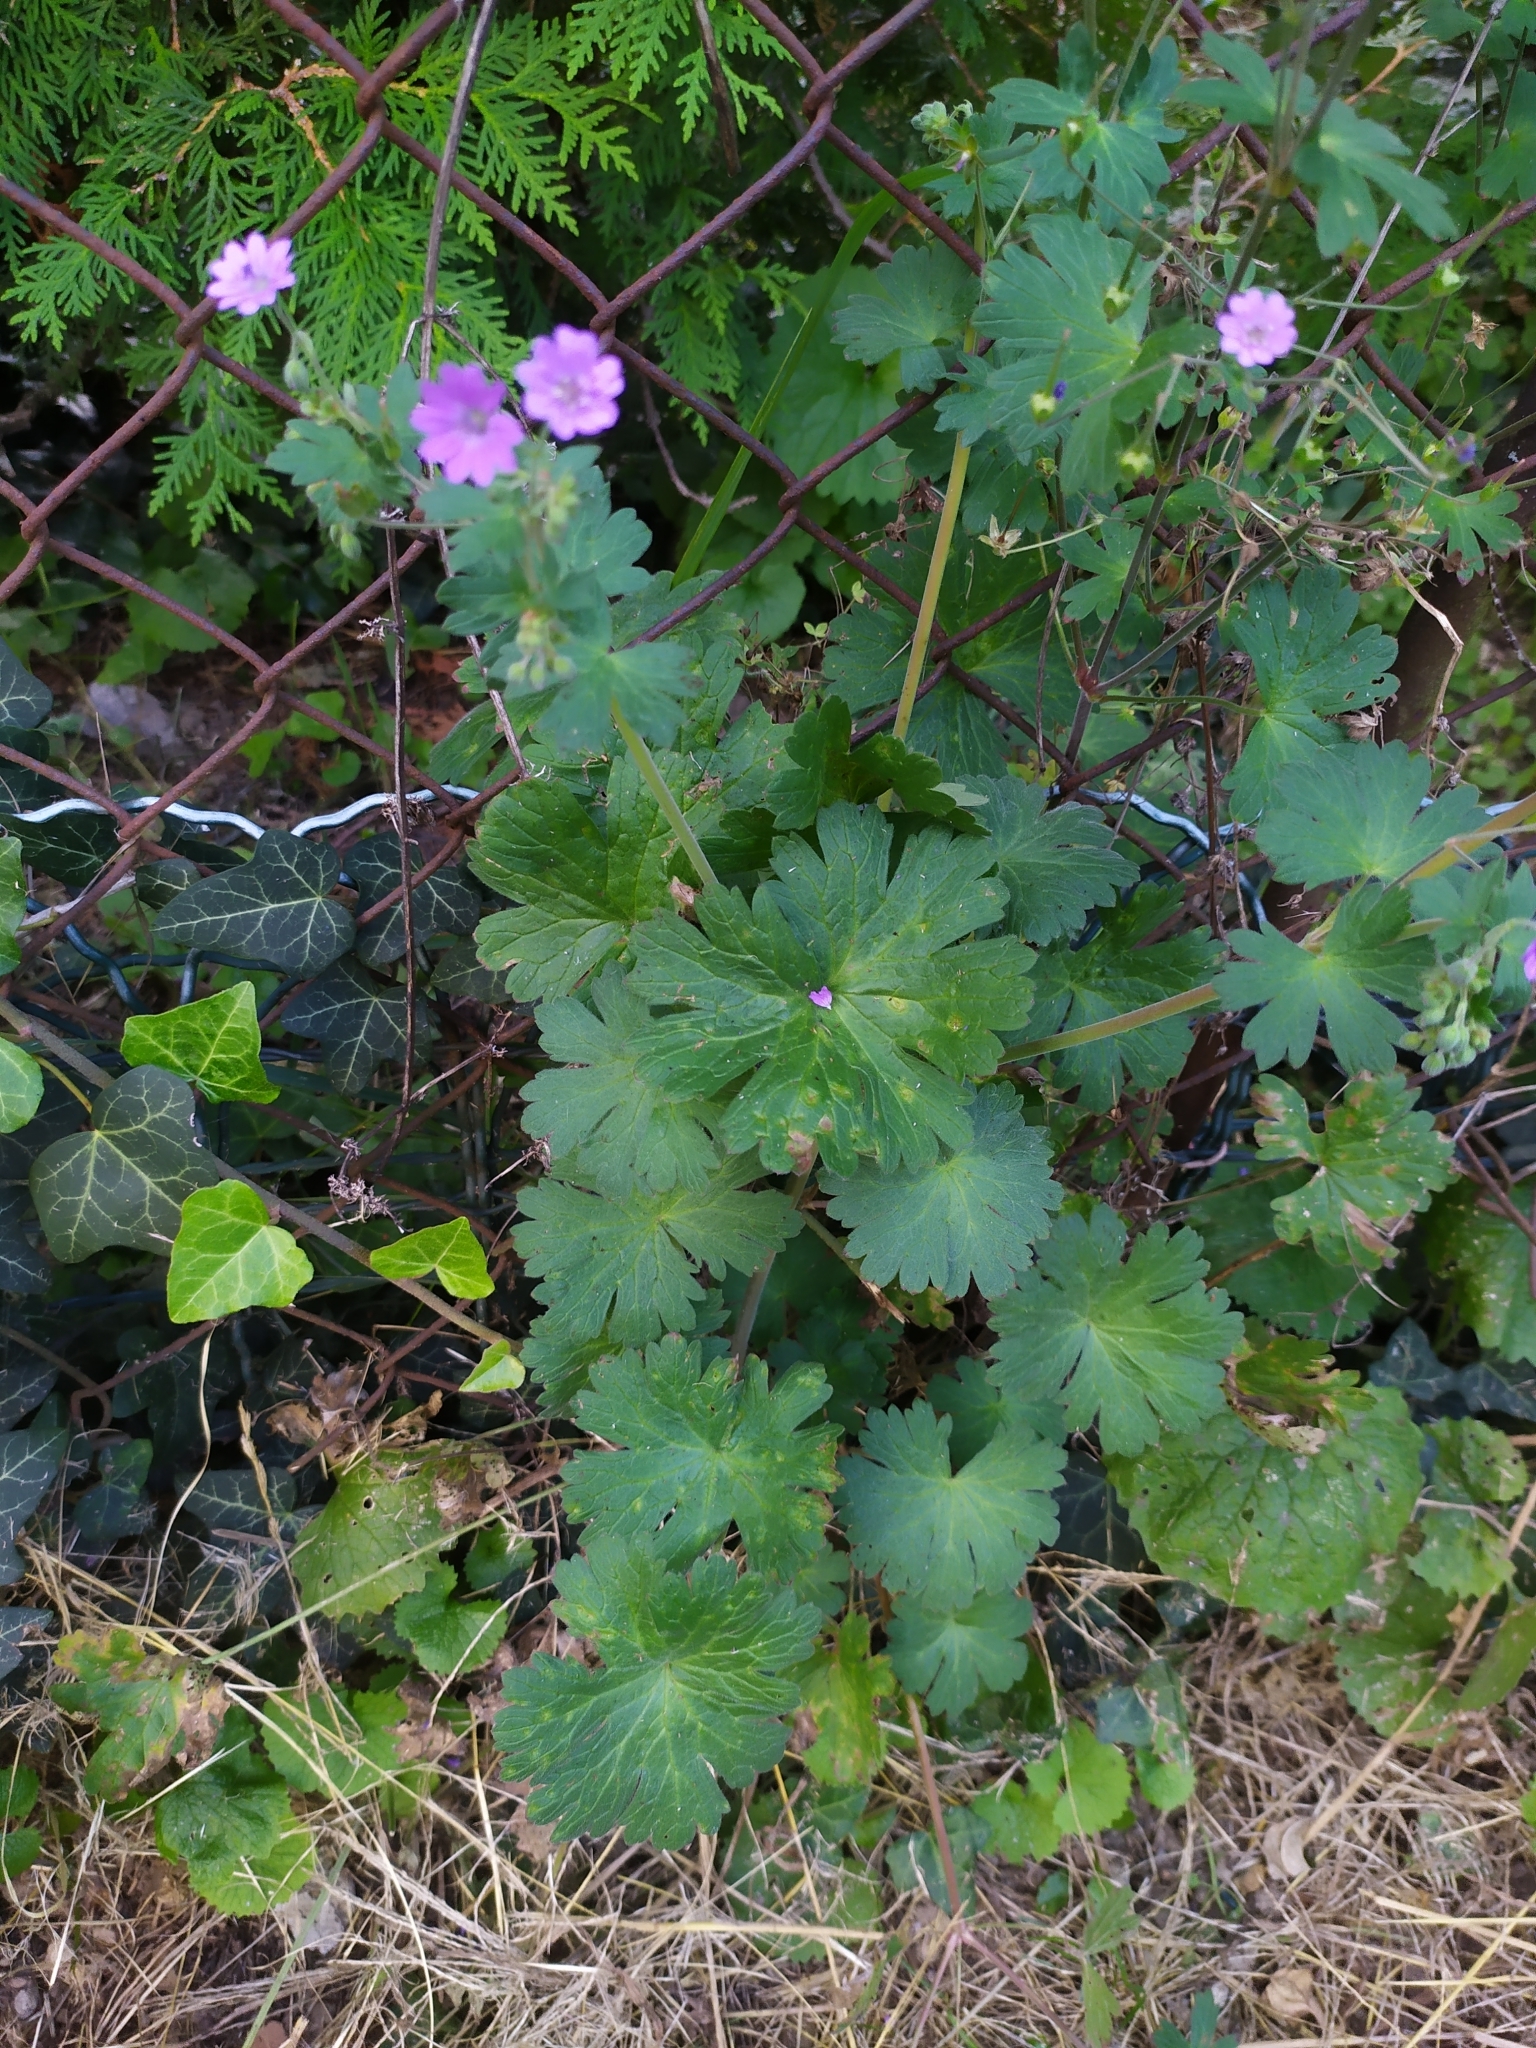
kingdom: Plantae
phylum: Tracheophyta
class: Magnoliopsida
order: Geraniales
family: Geraniaceae
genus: Geranium
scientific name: Geranium pyrenaicum
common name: Hedgerow crane's-bill
